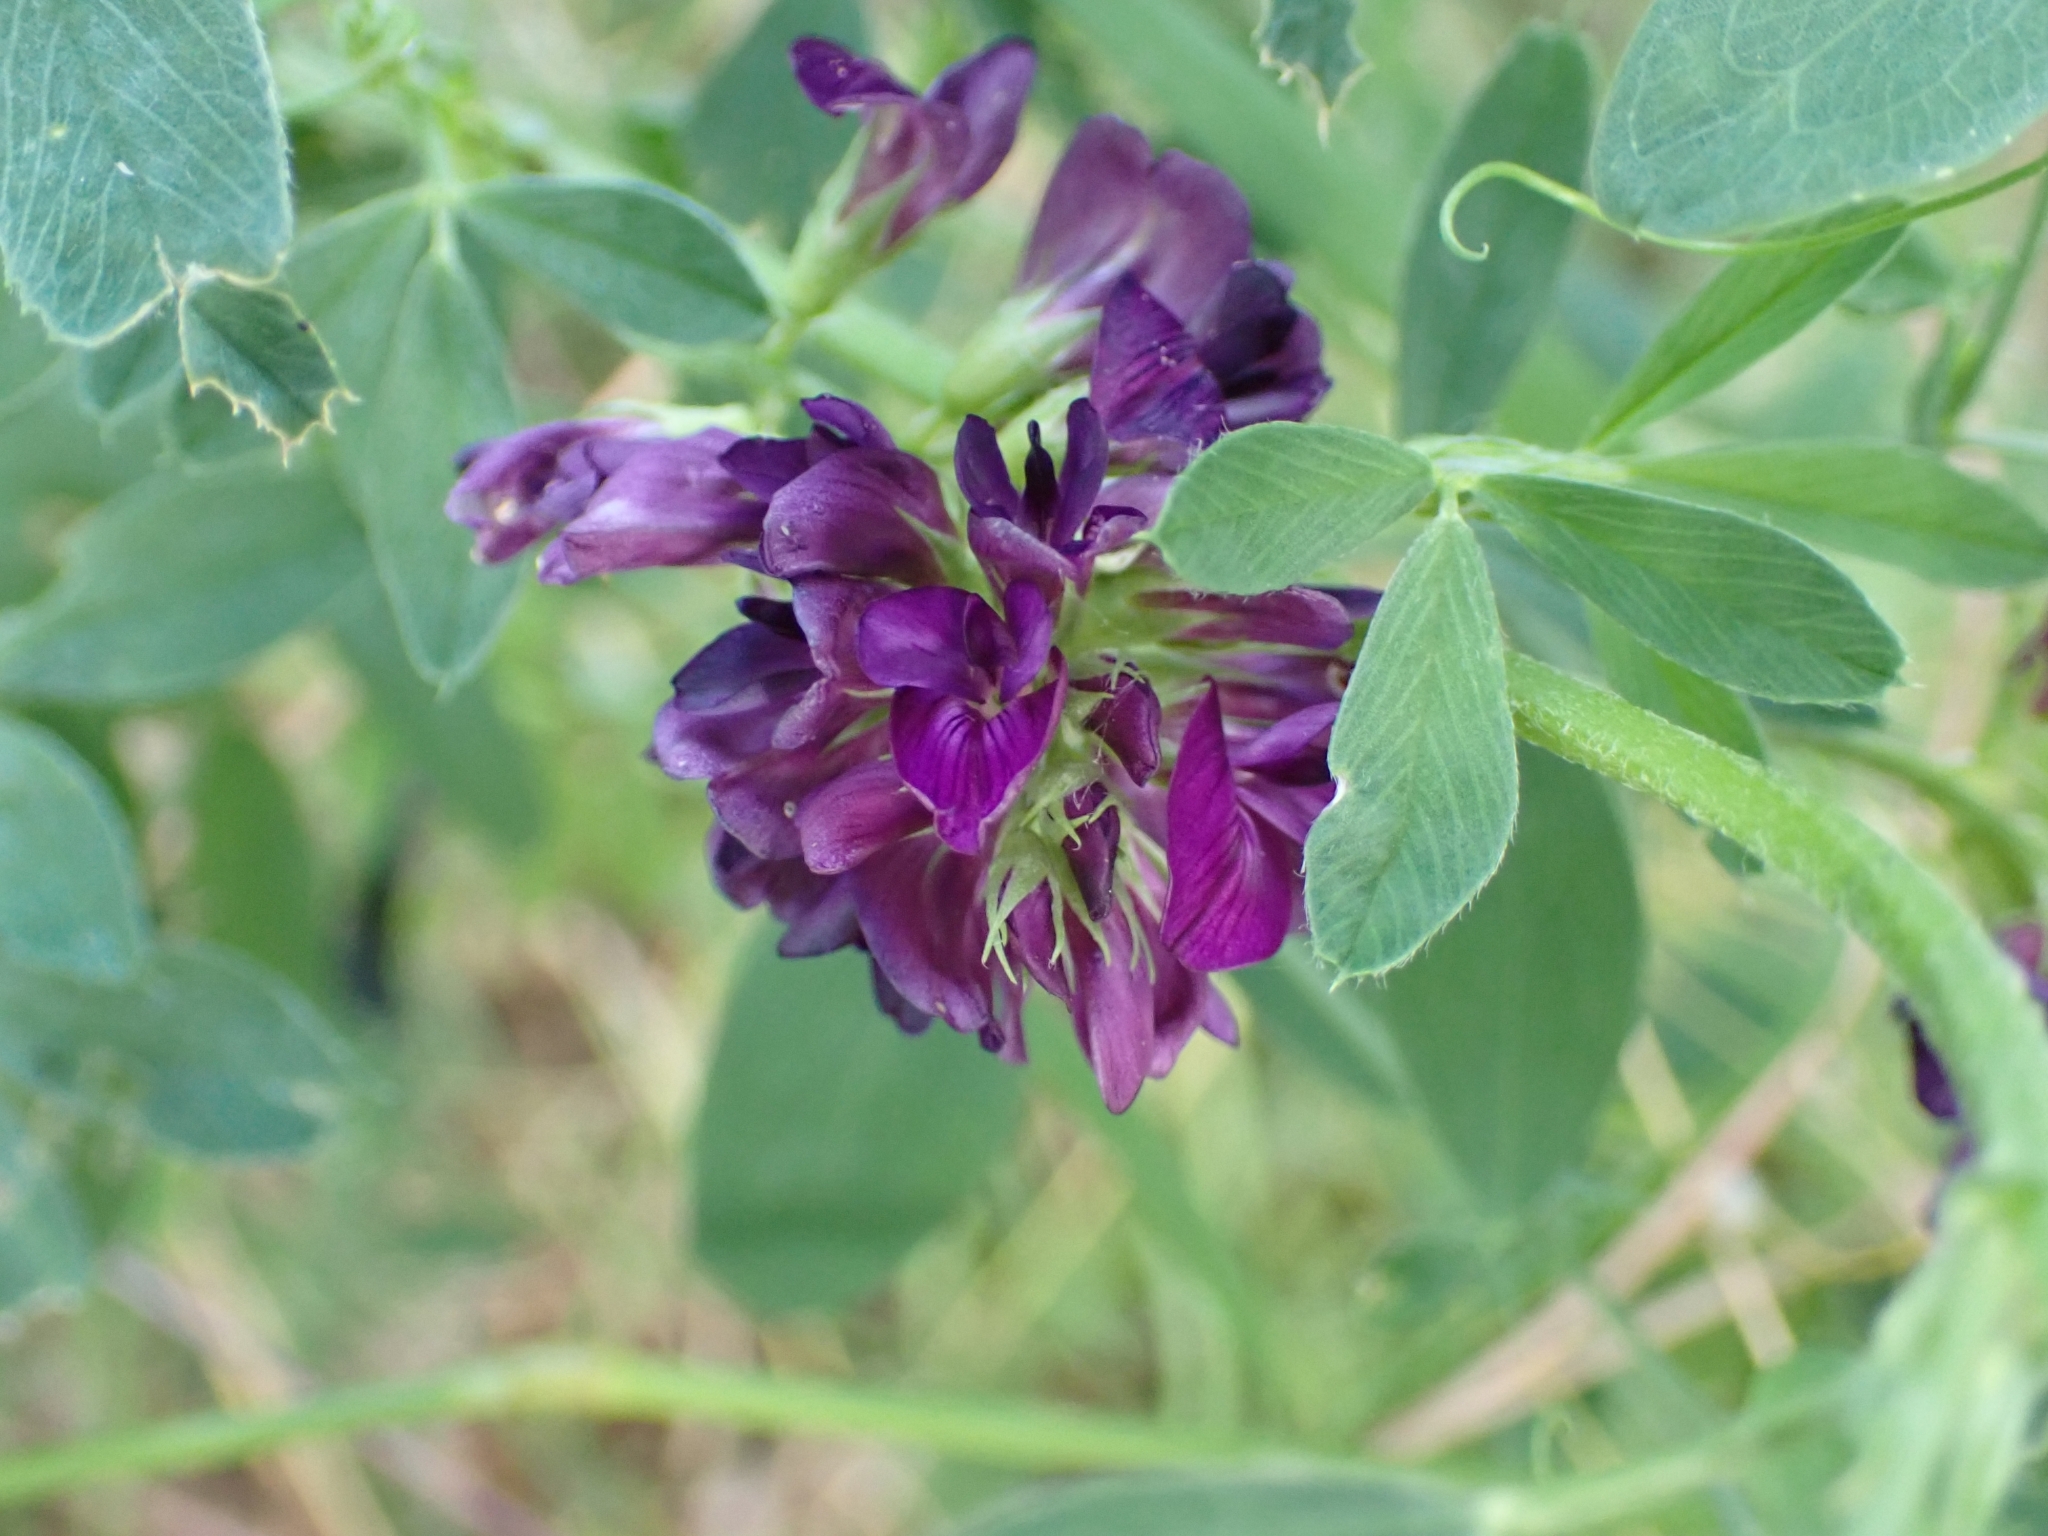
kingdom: Plantae
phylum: Tracheophyta
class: Magnoliopsida
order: Fabales
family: Fabaceae
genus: Medicago
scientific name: Medicago sativa
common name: Alfalfa
